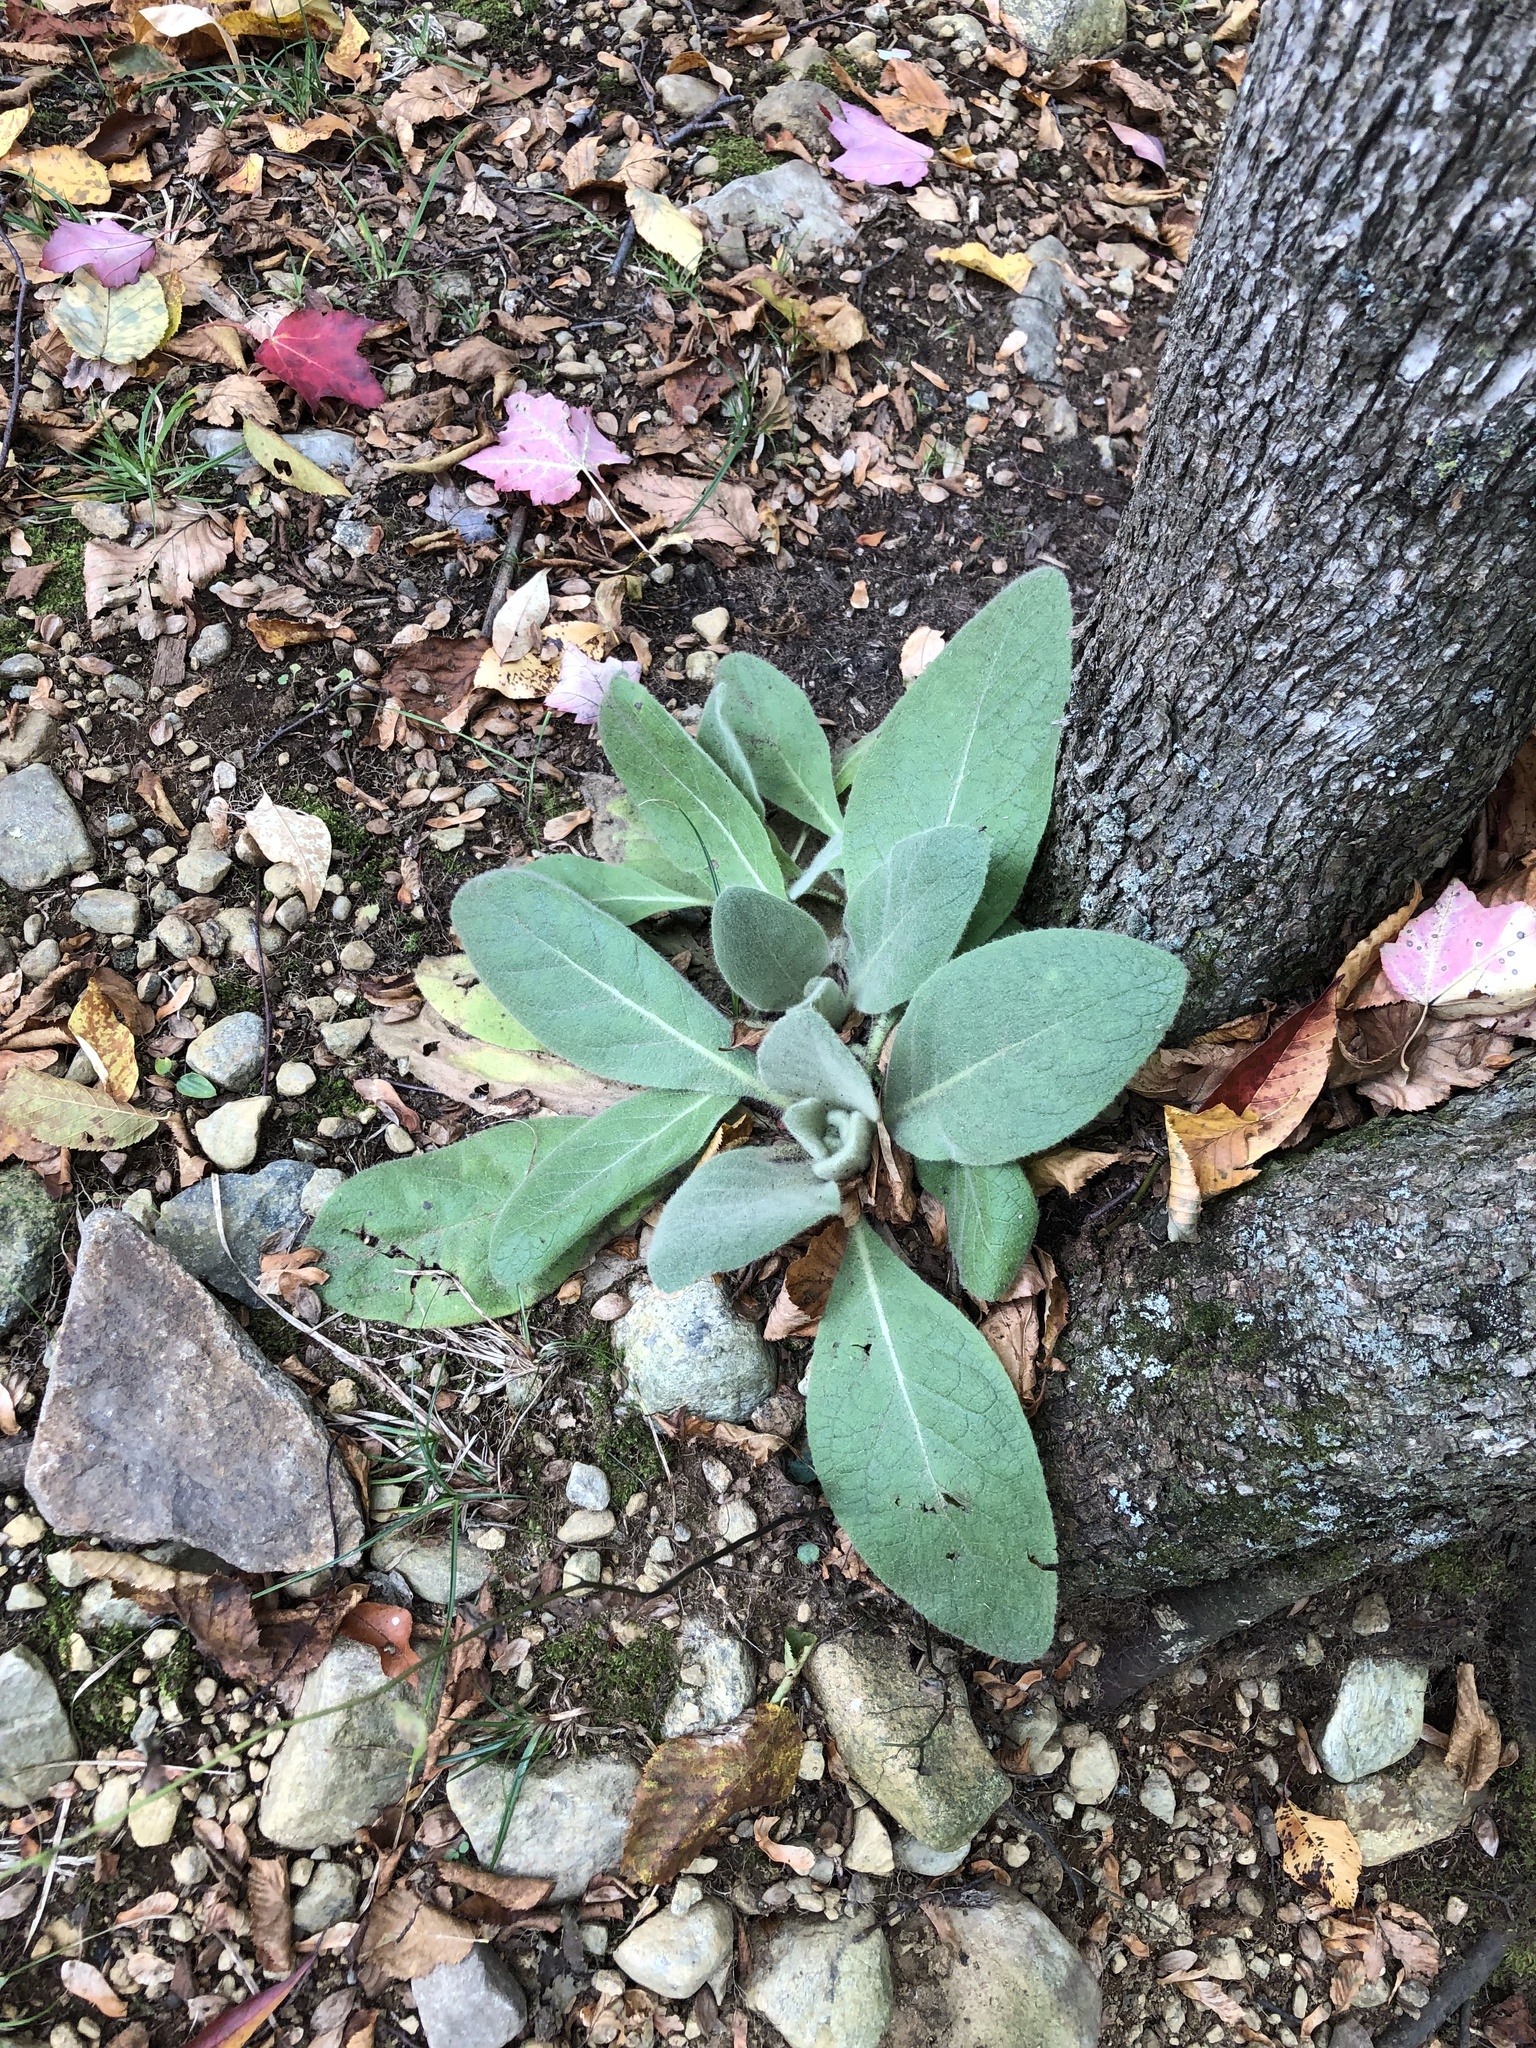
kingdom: Plantae
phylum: Tracheophyta
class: Magnoliopsida
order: Lamiales
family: Scrophulariaceae
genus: Verbascum
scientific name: Verbascum thapsus
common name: Common mullein
